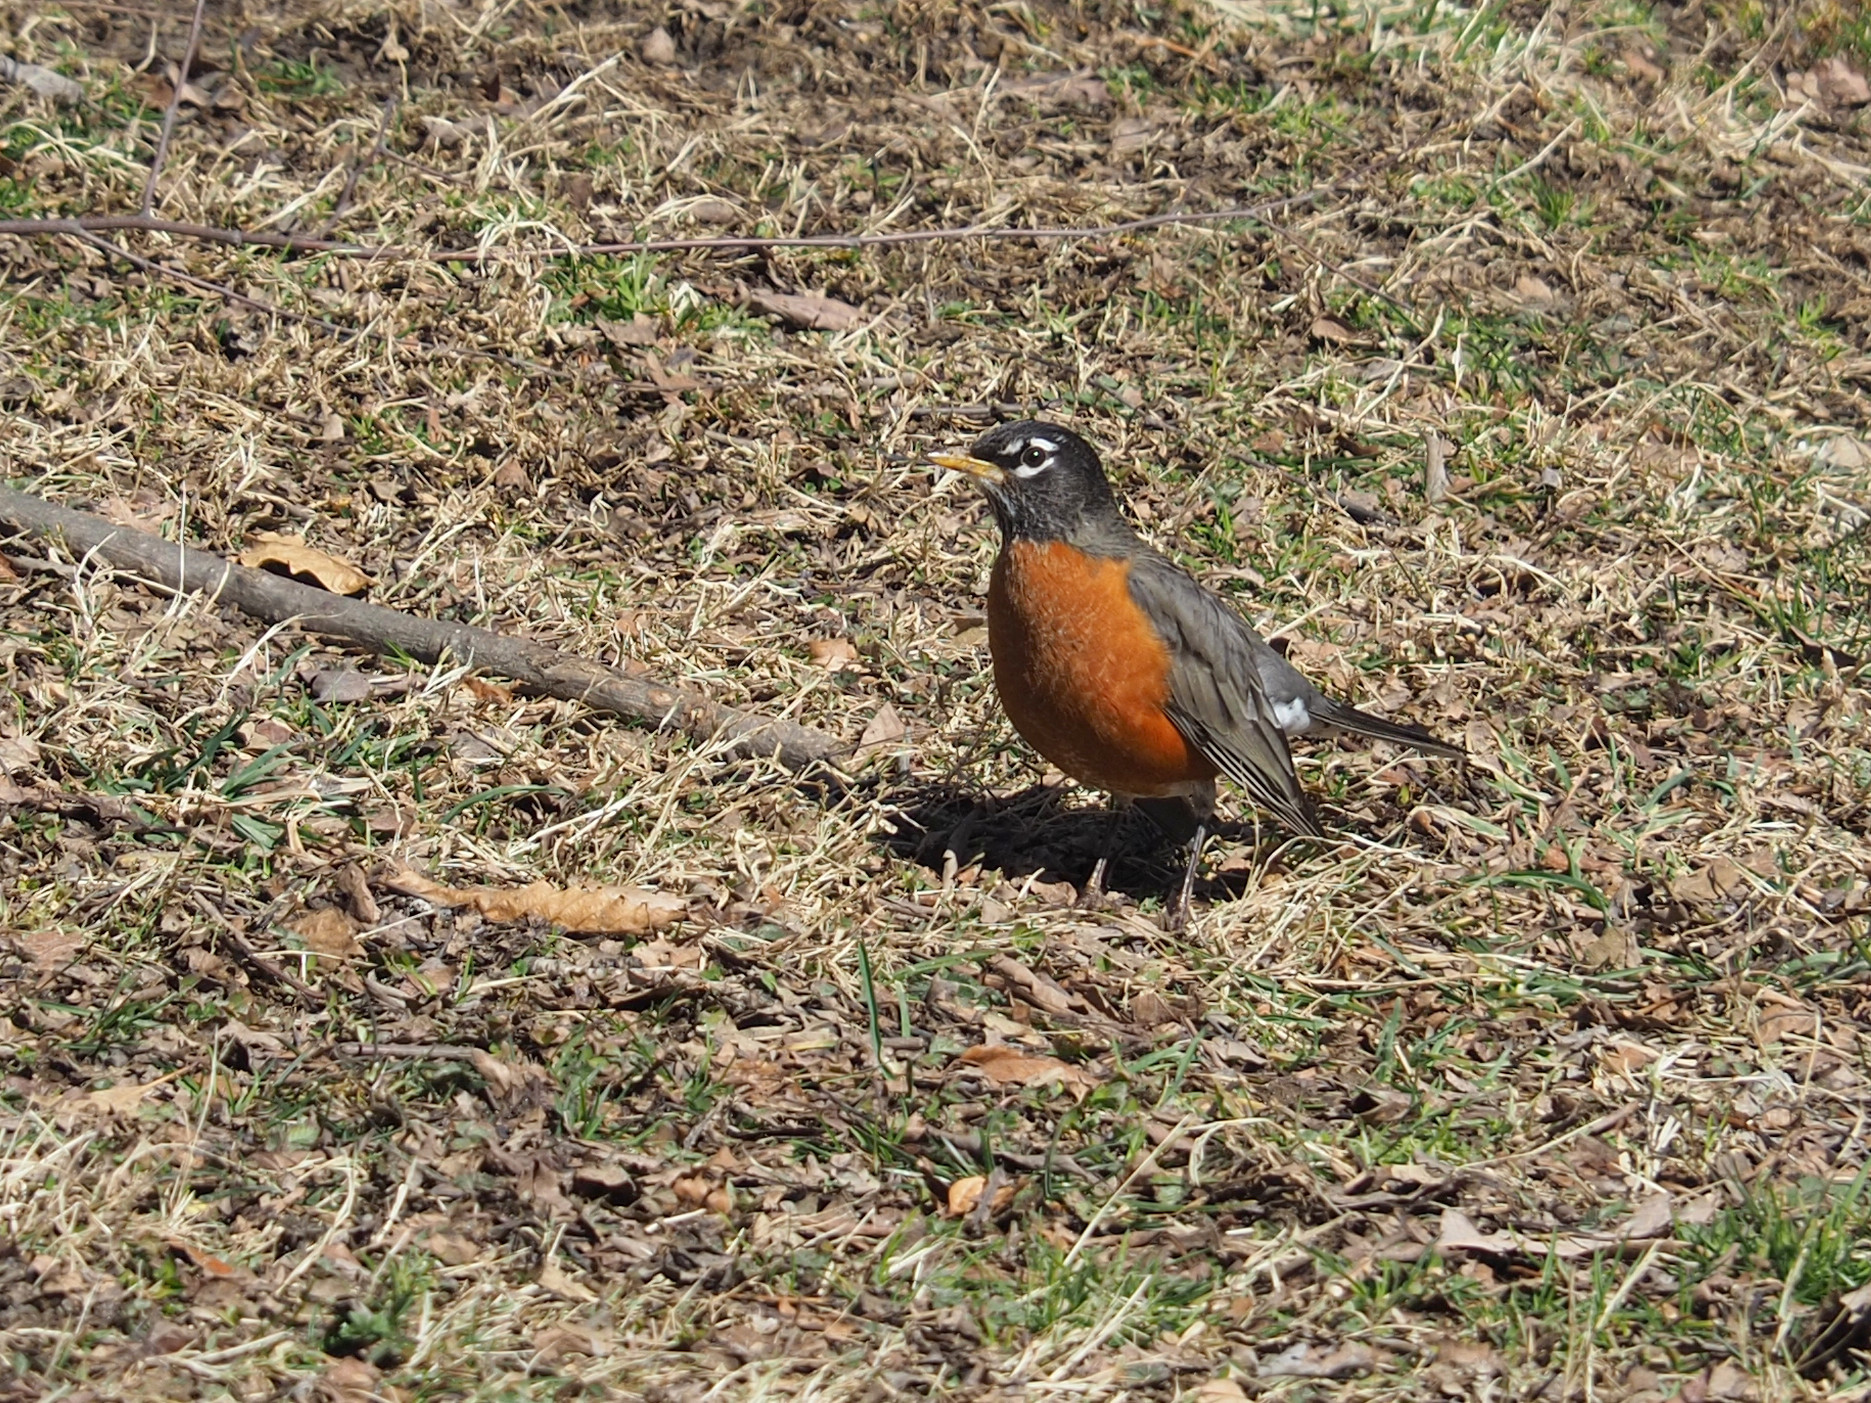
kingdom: Animalia
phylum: Chordata
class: Aves
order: Passeriformes
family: Turdidae
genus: Turdus
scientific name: Turdus migratorius
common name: American robin
